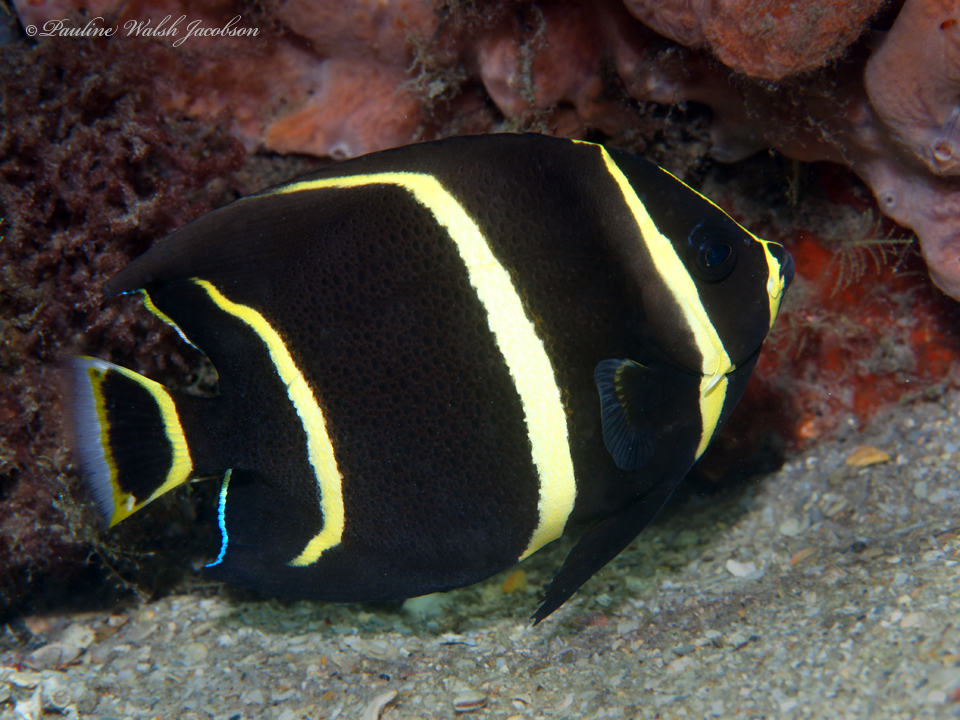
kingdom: Animalia
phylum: Chordata
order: Perciformes
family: Pomacanthidae
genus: Pomacanthus
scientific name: Pomacanthus arcuatus
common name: Gray angelfish
